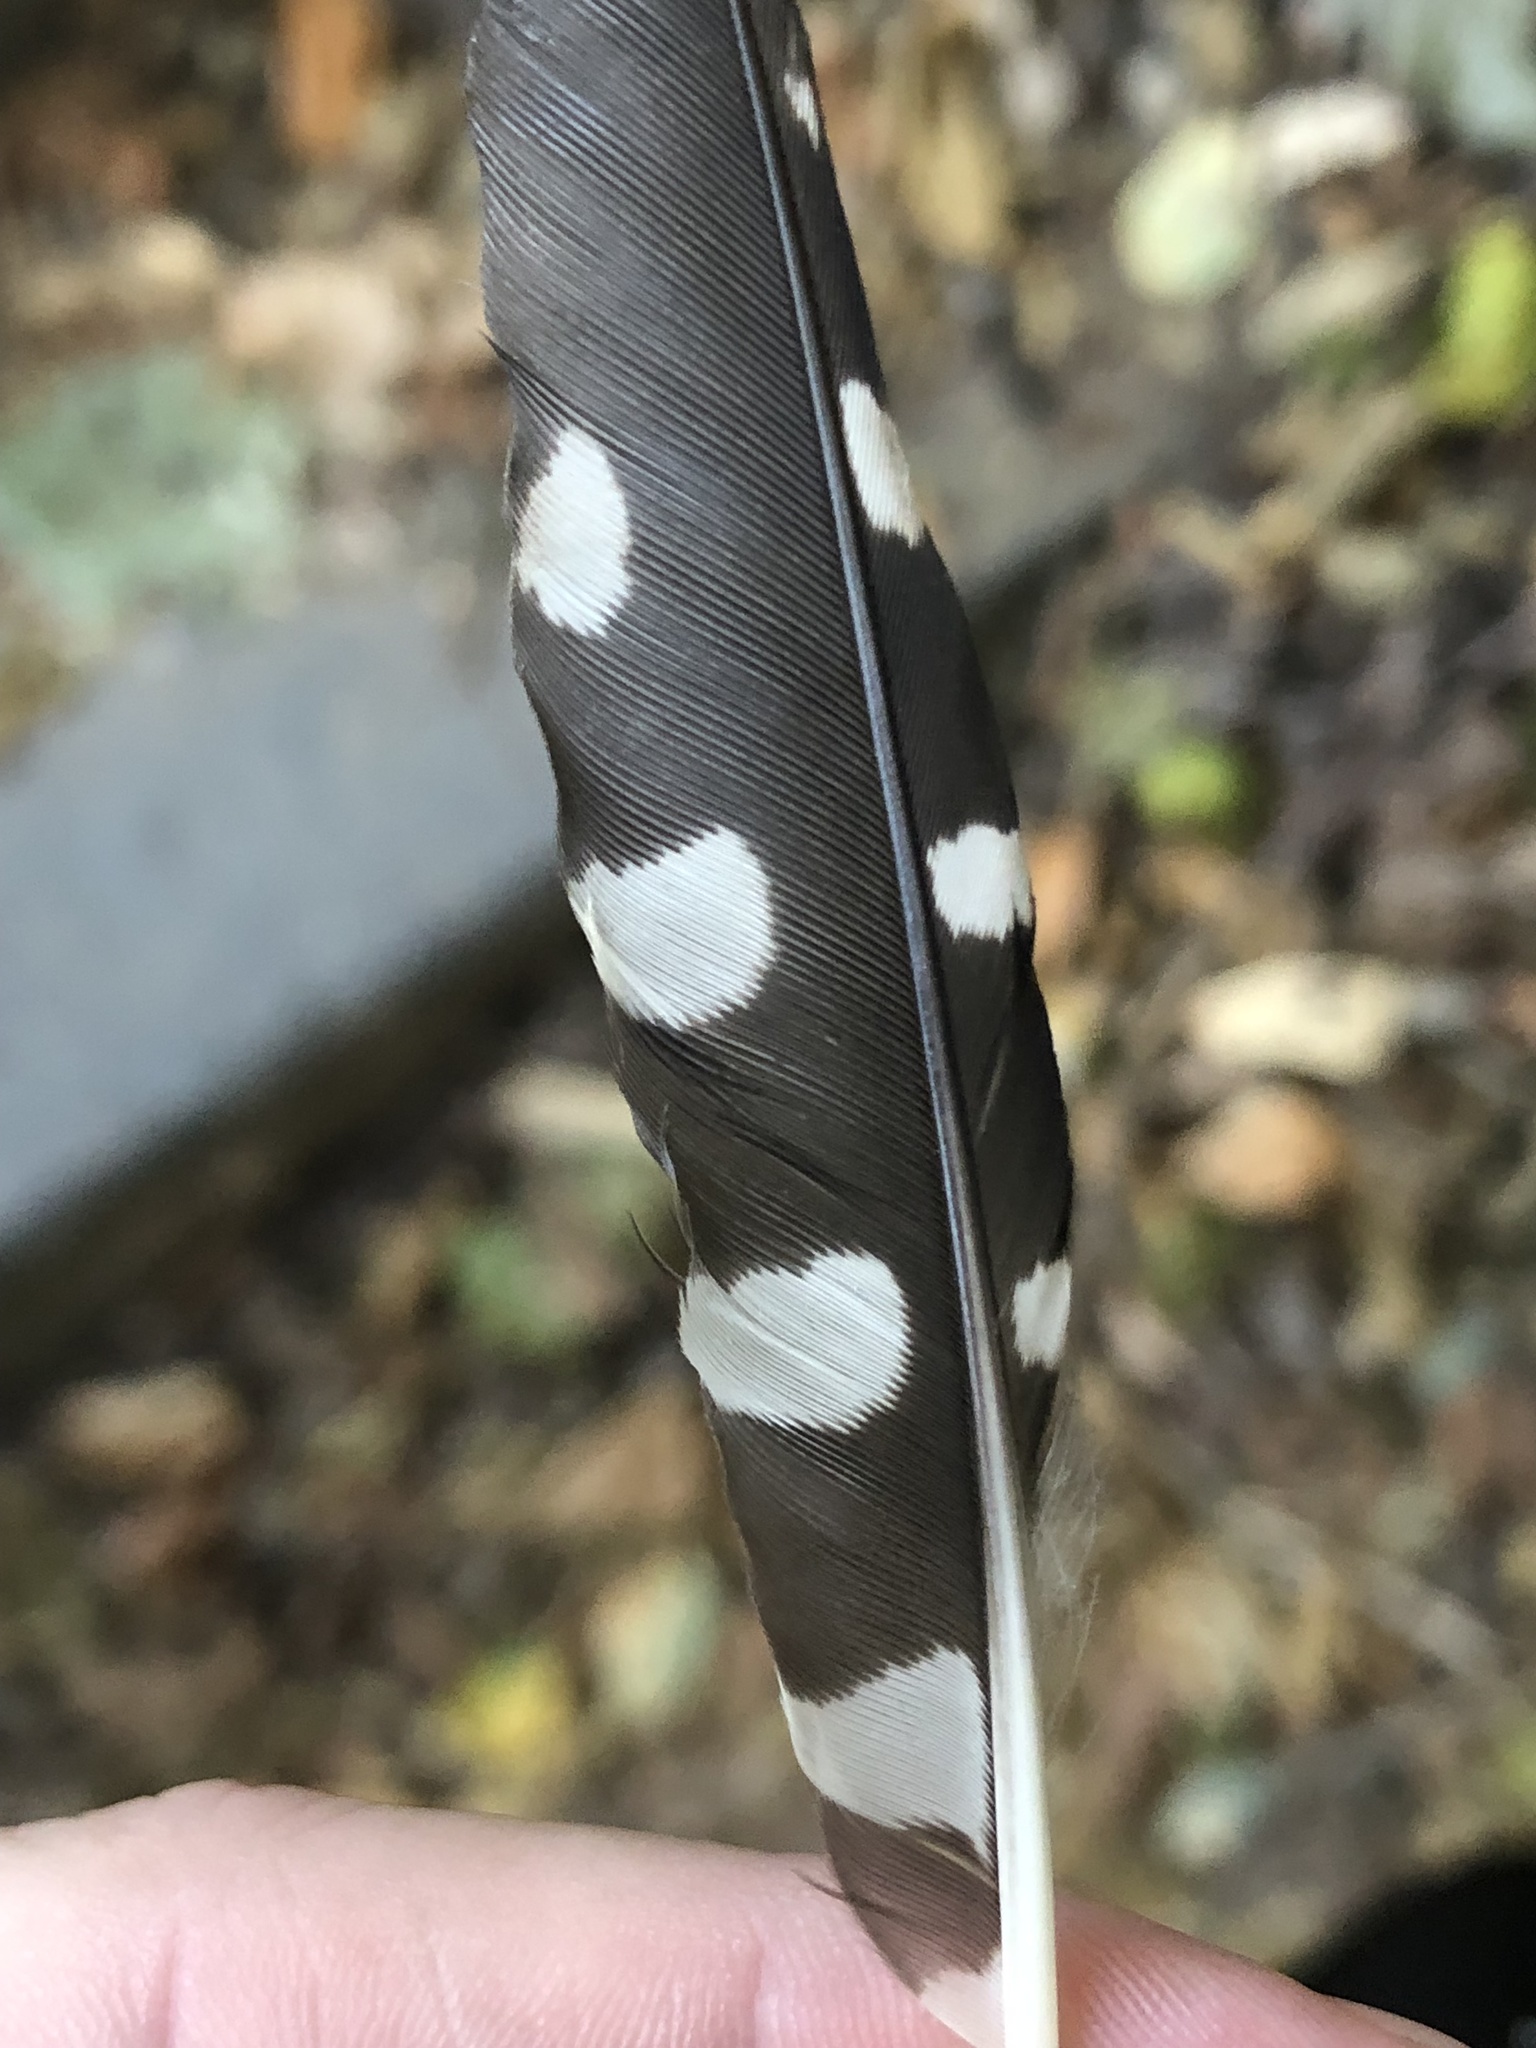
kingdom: Animalia
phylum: Chordata
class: Aves
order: Piciformes
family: Picidae
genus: Sphyrapicus
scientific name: Sphyrapicus ruber
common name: Red-breasted sapsucker
